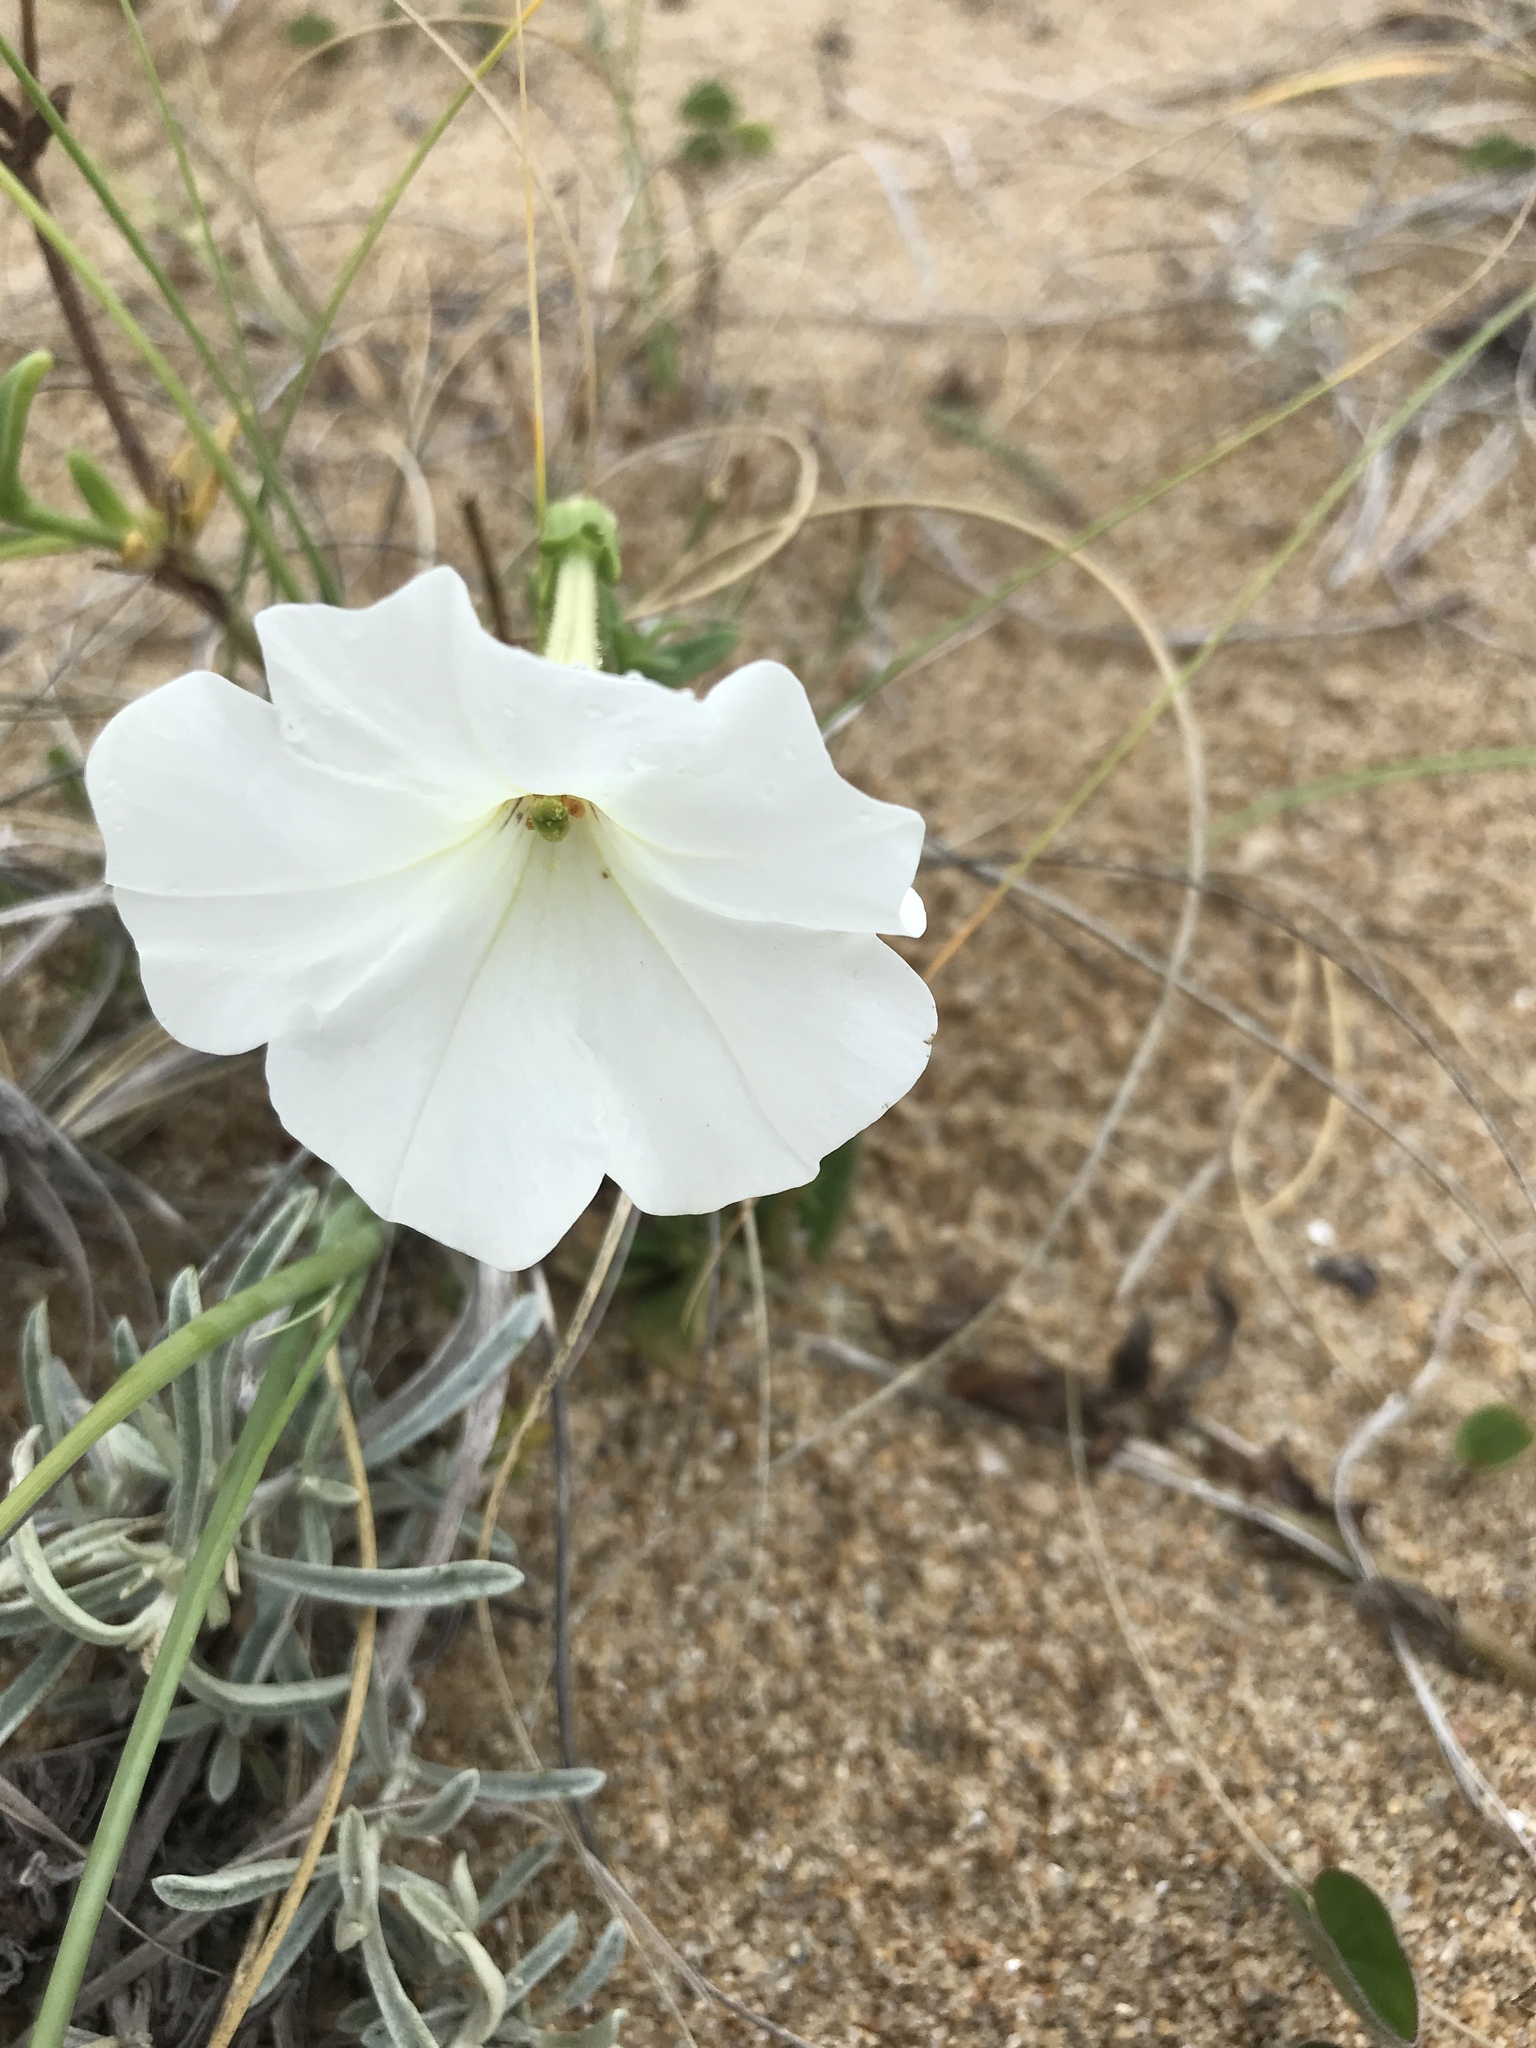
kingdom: Plantae
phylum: Tracheophyta
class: Magnoliopsida
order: Solanales
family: Solanaceae
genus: Petunia
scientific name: Petunia axillaris
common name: Large white petunia
